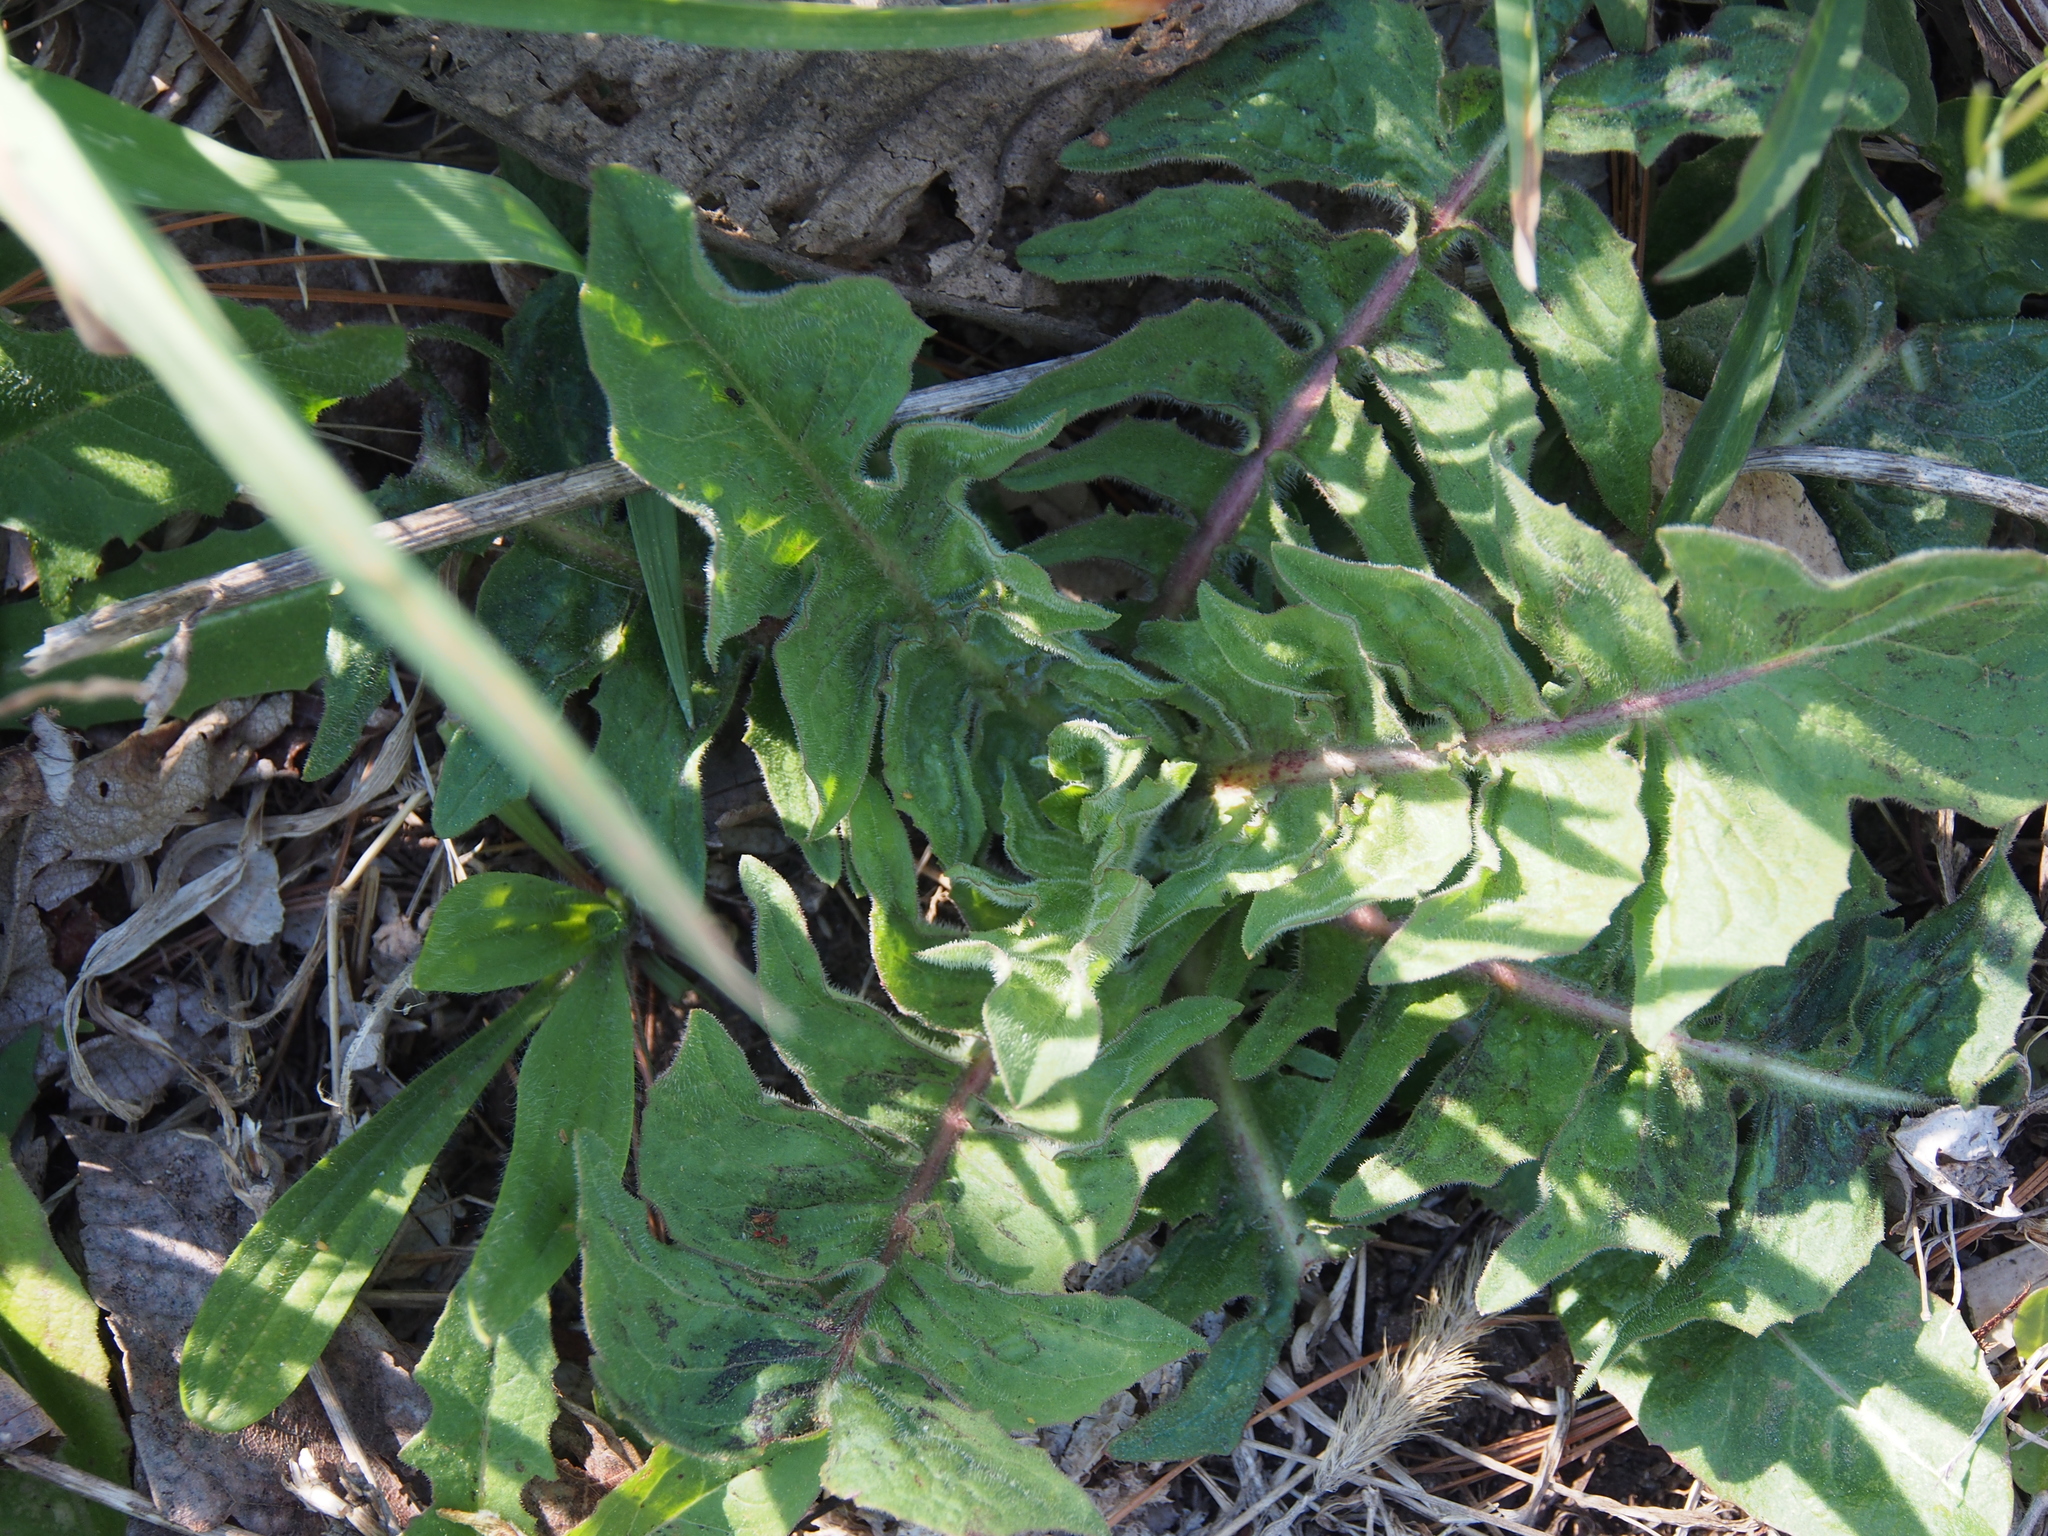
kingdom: Plantae
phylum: Tracheophyta
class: Magnoliopsida
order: Asterales
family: Asteraceae
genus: Cichorium
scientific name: Cichorium intybus
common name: Chicory
